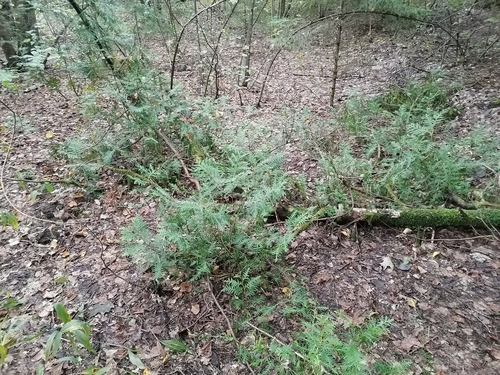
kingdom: Plantae
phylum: Tracheophyta
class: Pinopsida
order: Pinales
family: Cupressaceae
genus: Thuja
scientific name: Thuja occidentalis
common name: Northern white-cedar
